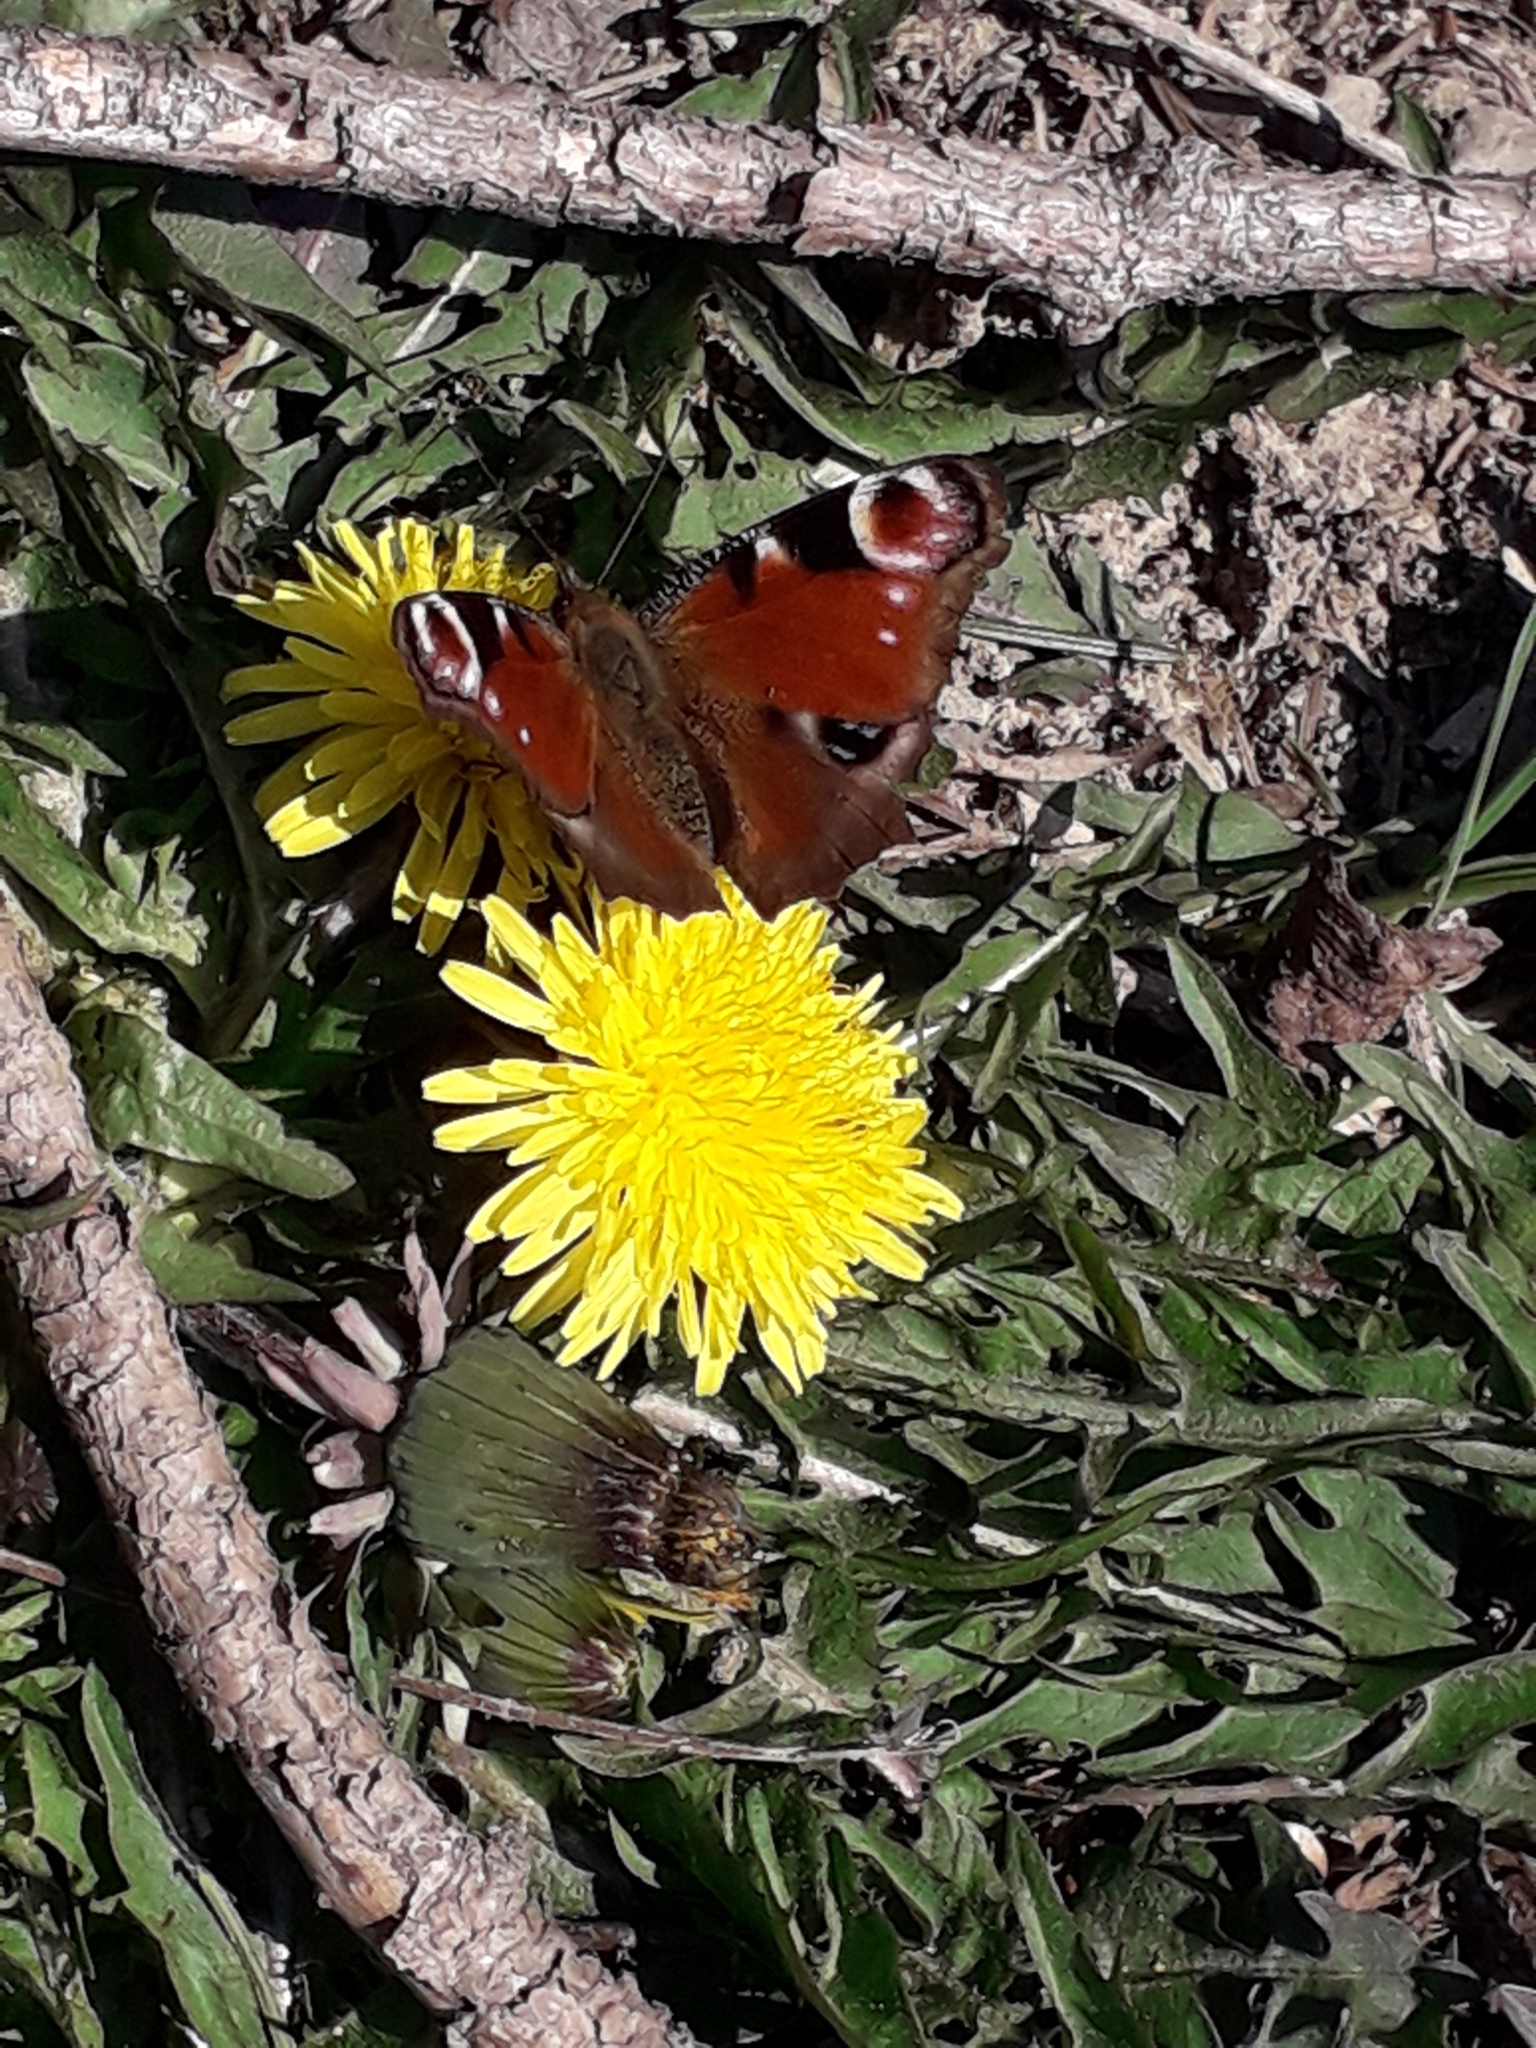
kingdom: Animalia
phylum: Arthropoda
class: Insecta
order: Lepidoptera
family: Nymphalidae
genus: Aglais
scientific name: Aglais io
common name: Peacock
